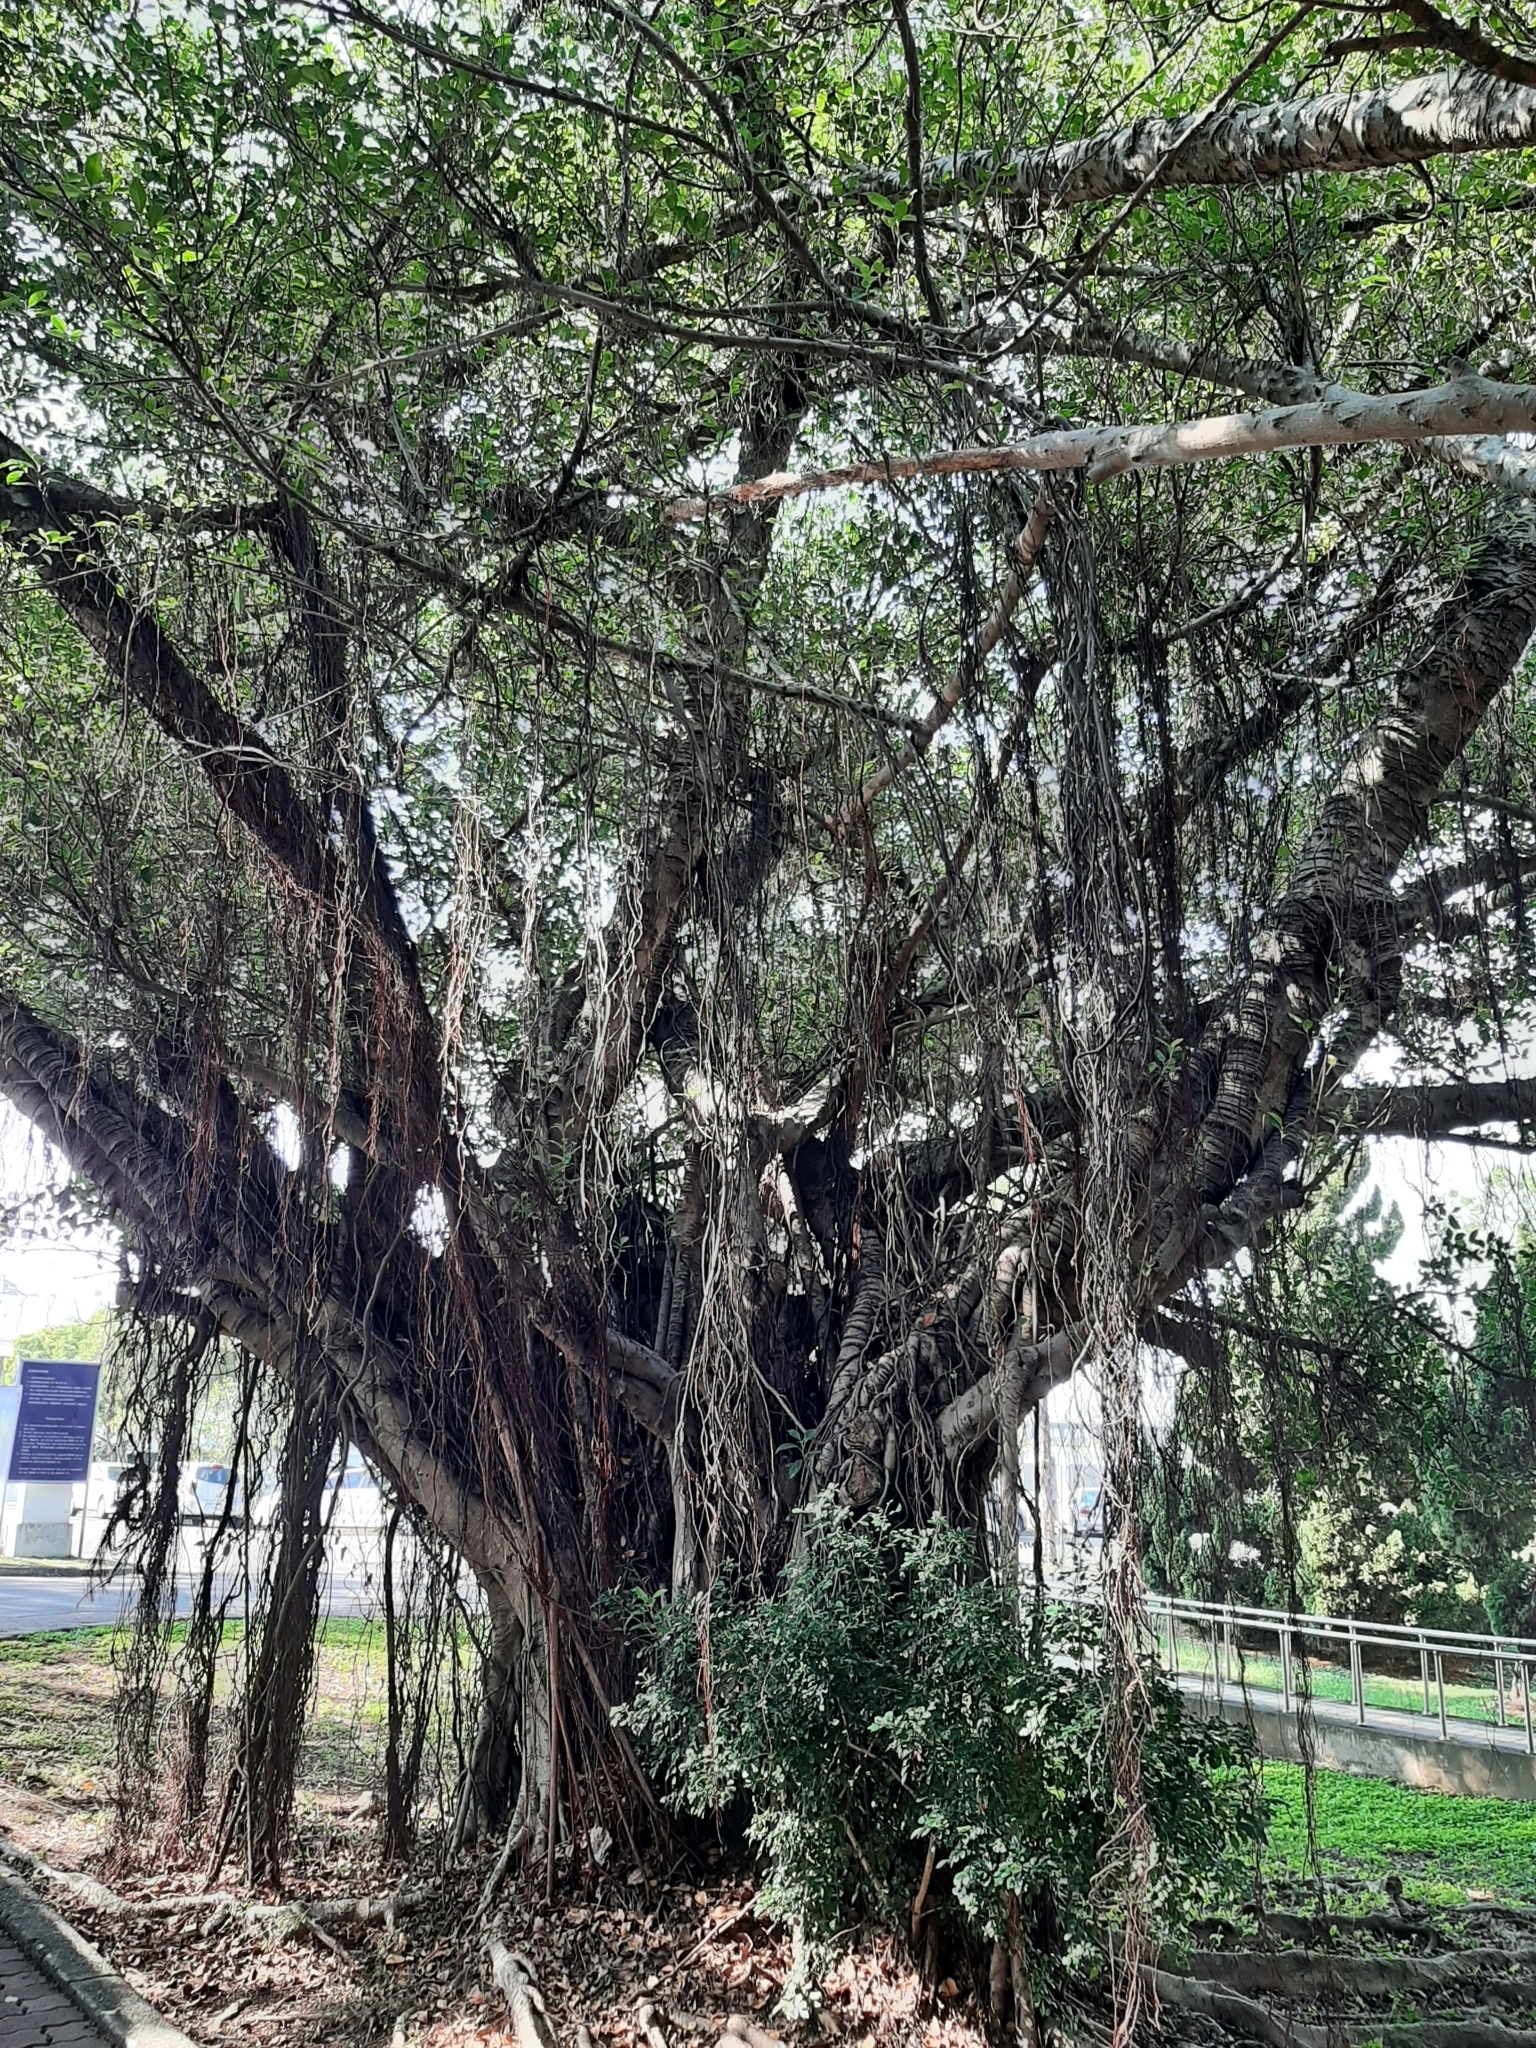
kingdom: Plantae
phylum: Tracheophyta
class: Magnoliopsida
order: Rosales
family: Moraceae
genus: Ficus
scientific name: Ficus microcarpa
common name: Chinese banyan
